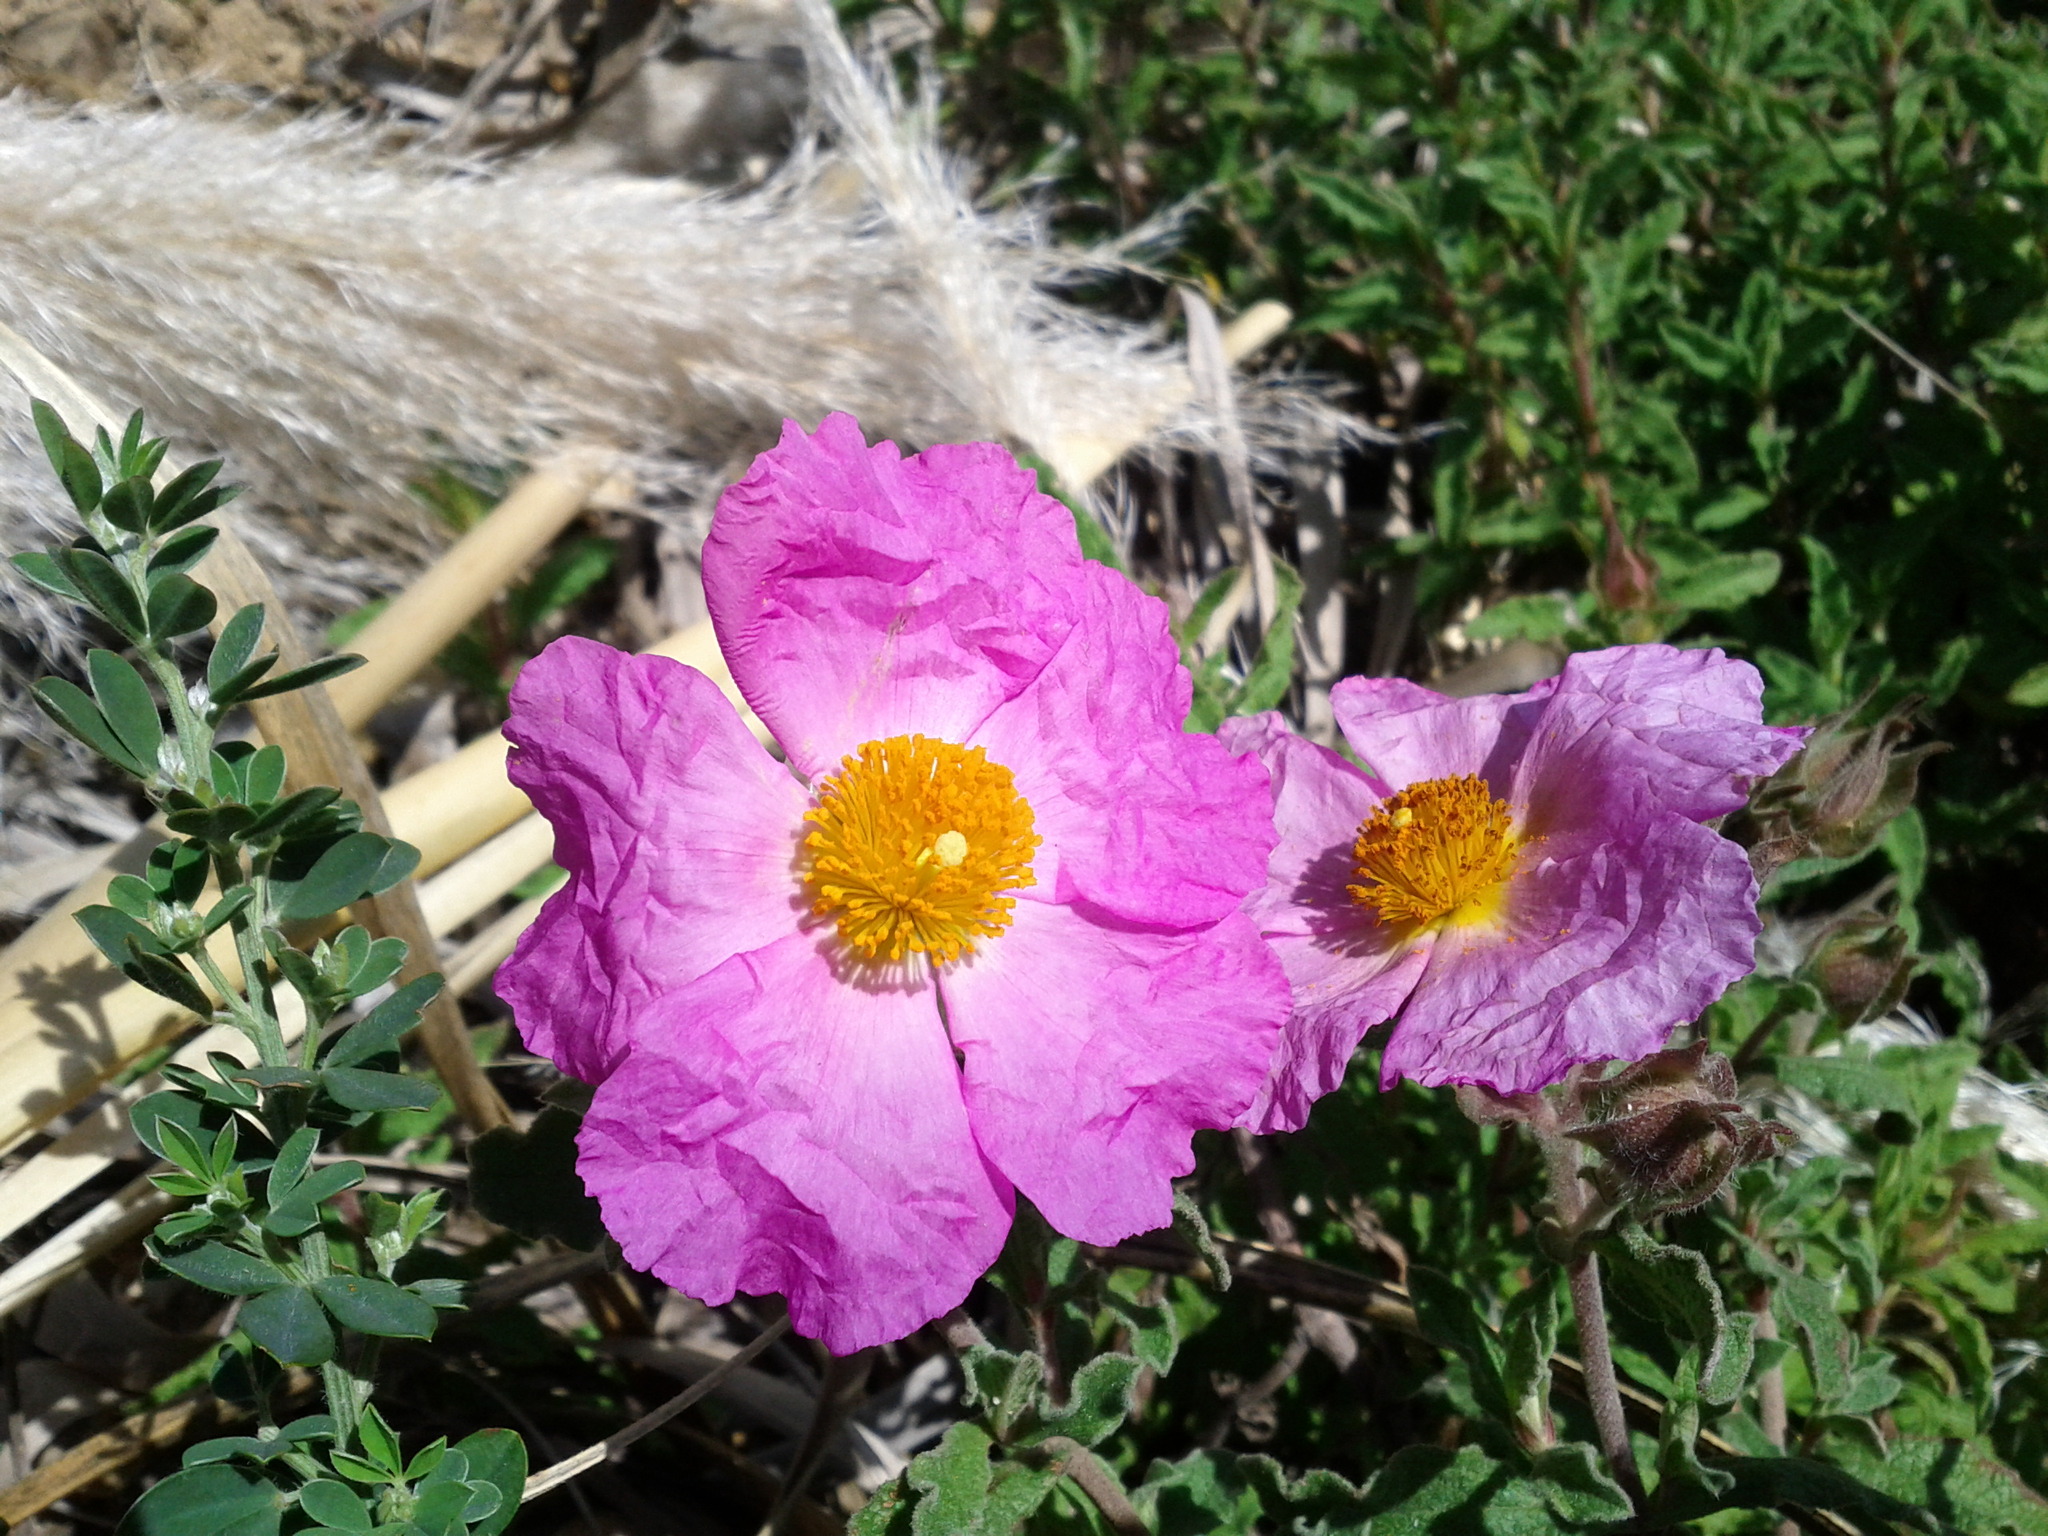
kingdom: Plantae
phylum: Tracheophyta
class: Magnoliopsida
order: Malvales
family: Cistaceae
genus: Cistus
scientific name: Cistus tauricus
